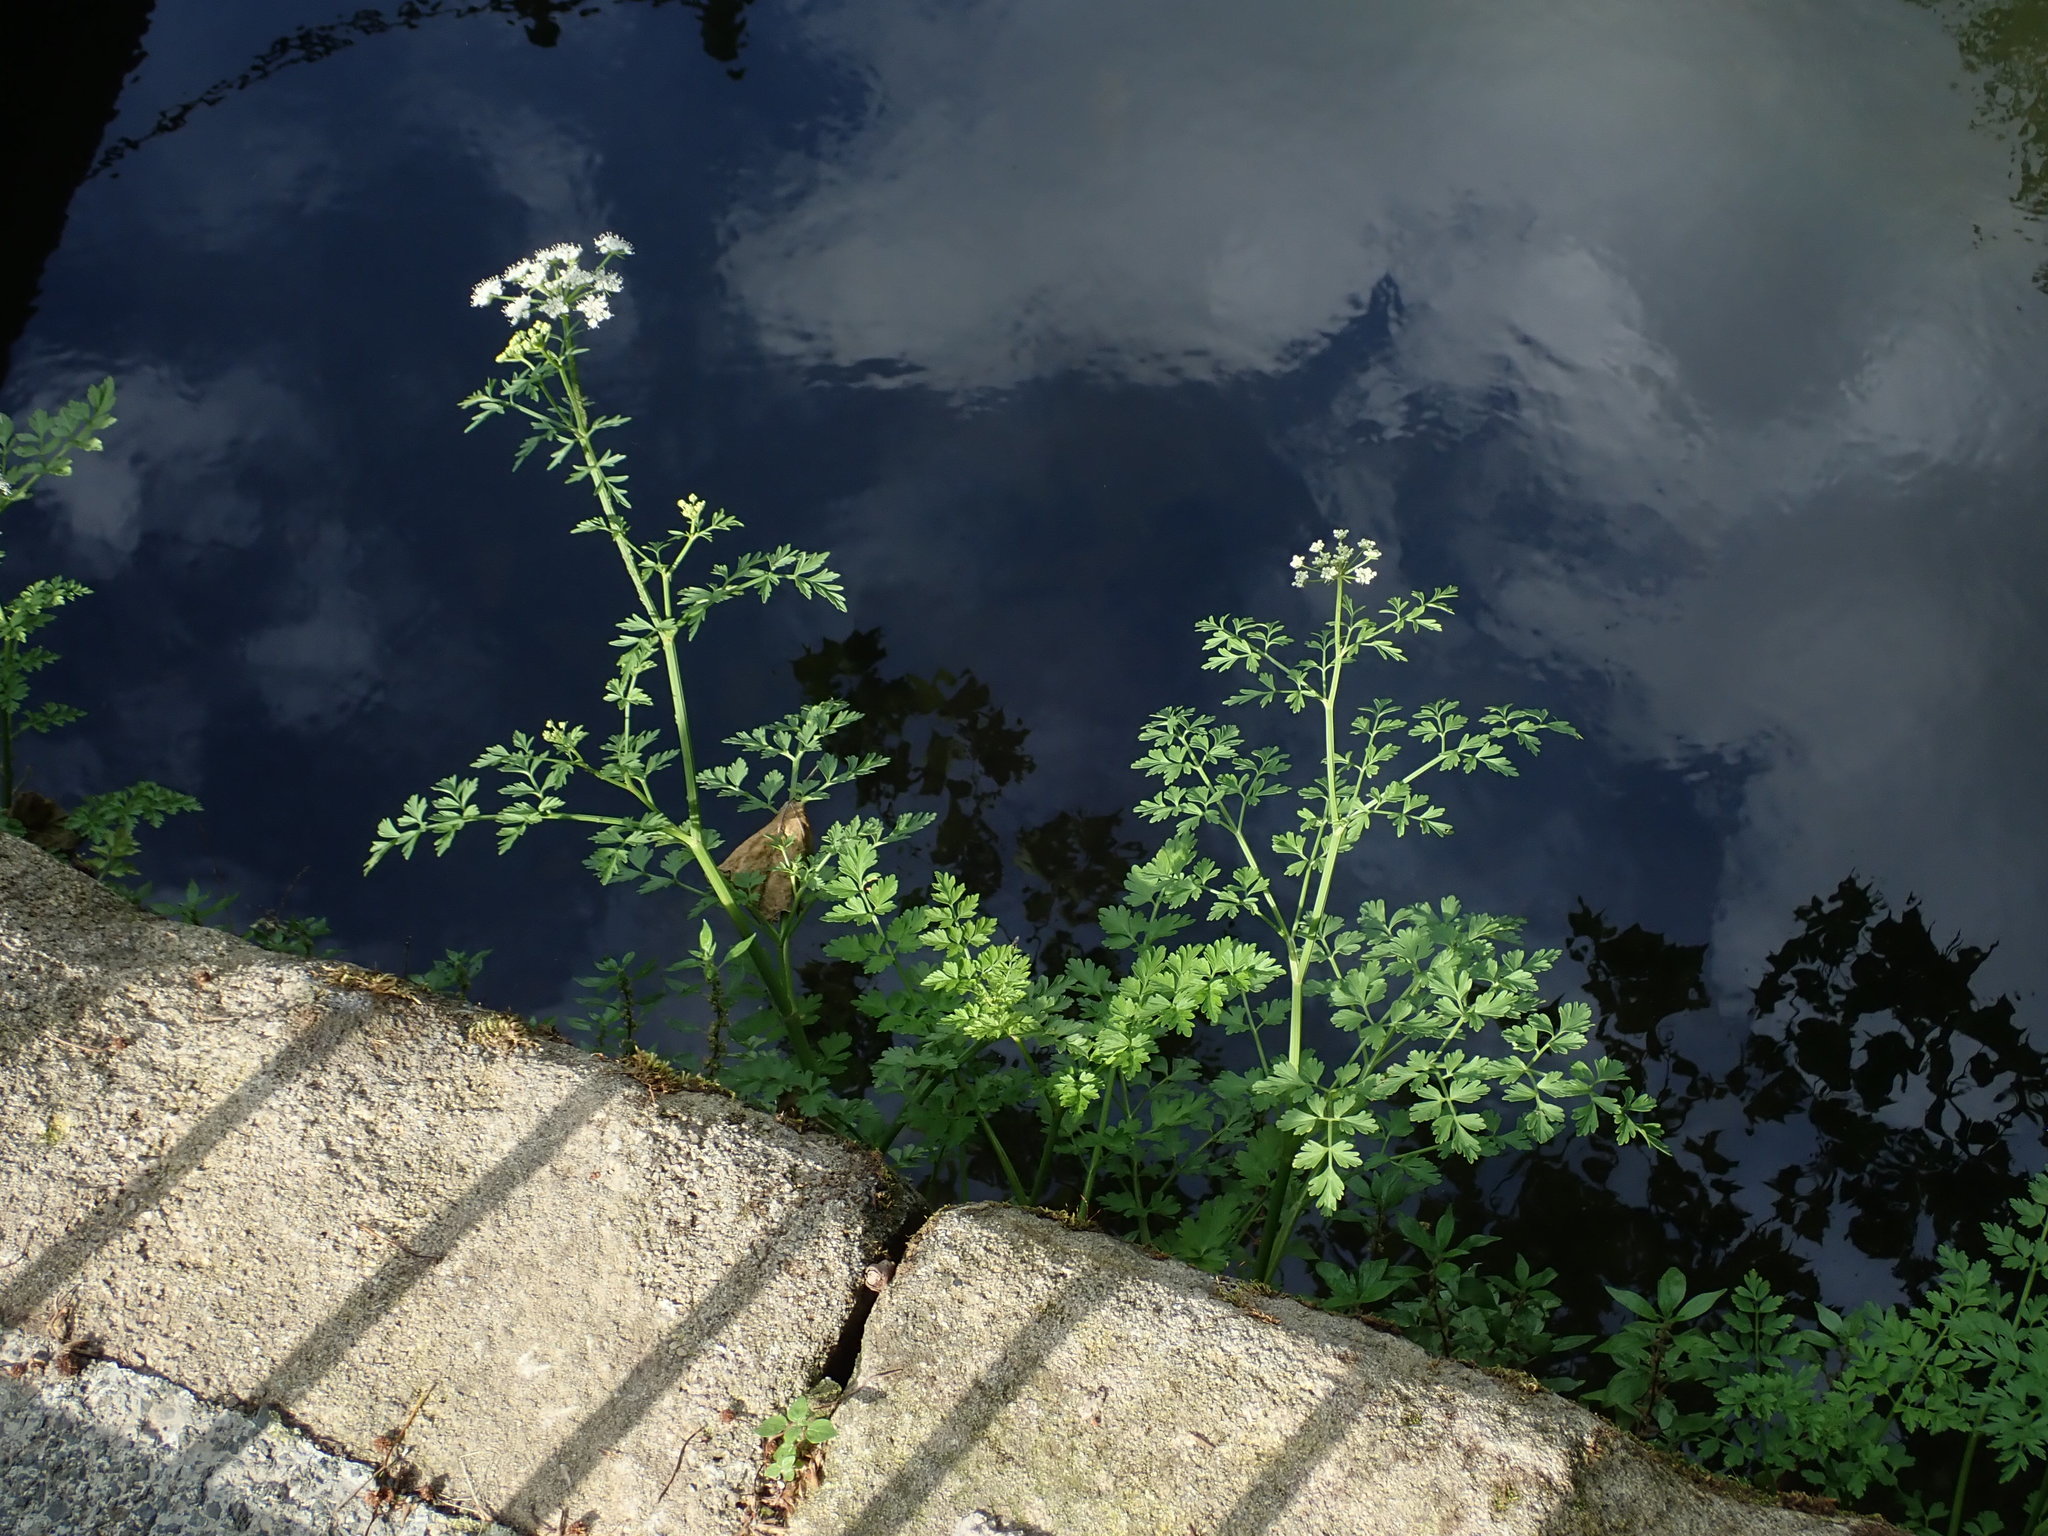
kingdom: Plantae
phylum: Tracheophyta
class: Magnoliopsida
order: Apiales
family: Apiaceae
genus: Oenanthe
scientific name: Oenanthe crocata
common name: Hemlock water-dropwort
